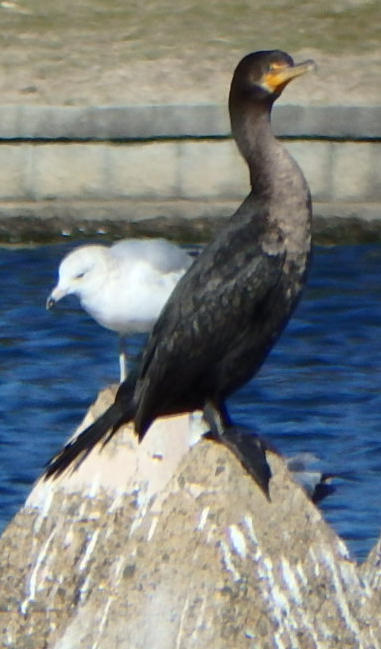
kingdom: Animalia
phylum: Chordata
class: Aves
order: Suliformes
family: Phalacrocoracidae
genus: Phalacrocorax
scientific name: Phalacrocorax auritus
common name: Double-crested cormorant
